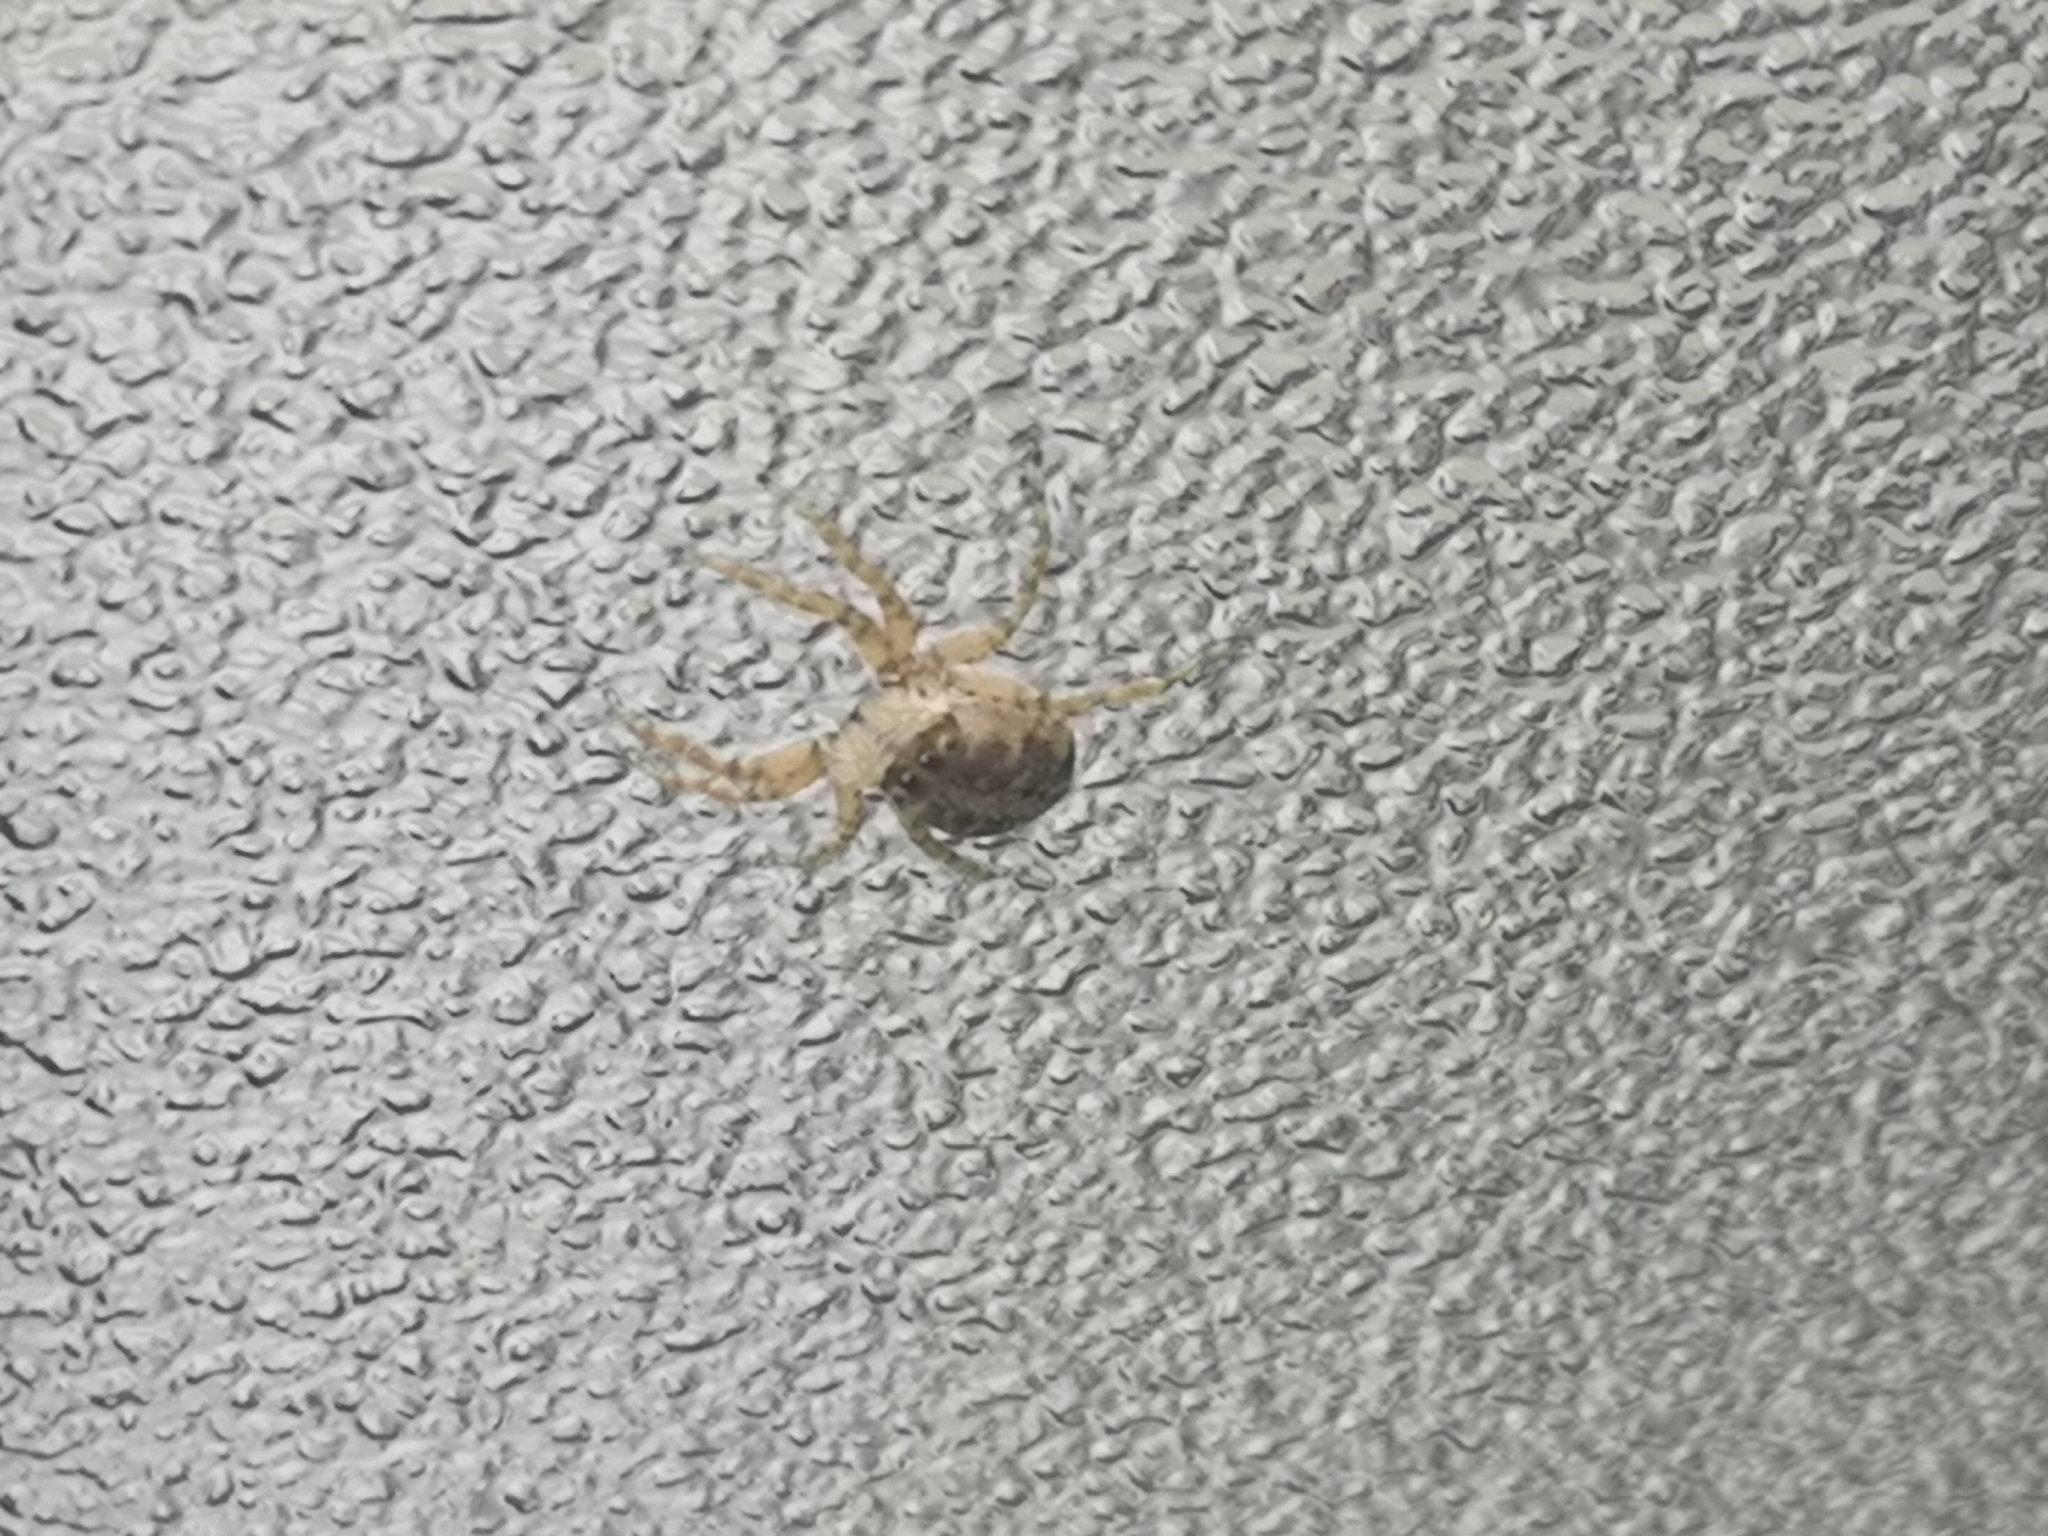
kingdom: Animalia
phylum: Arthropoda
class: Arachnida
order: Araneae
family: Salticidae
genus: Menemerus
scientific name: Menemerus semilimbatus
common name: Jumping spider
